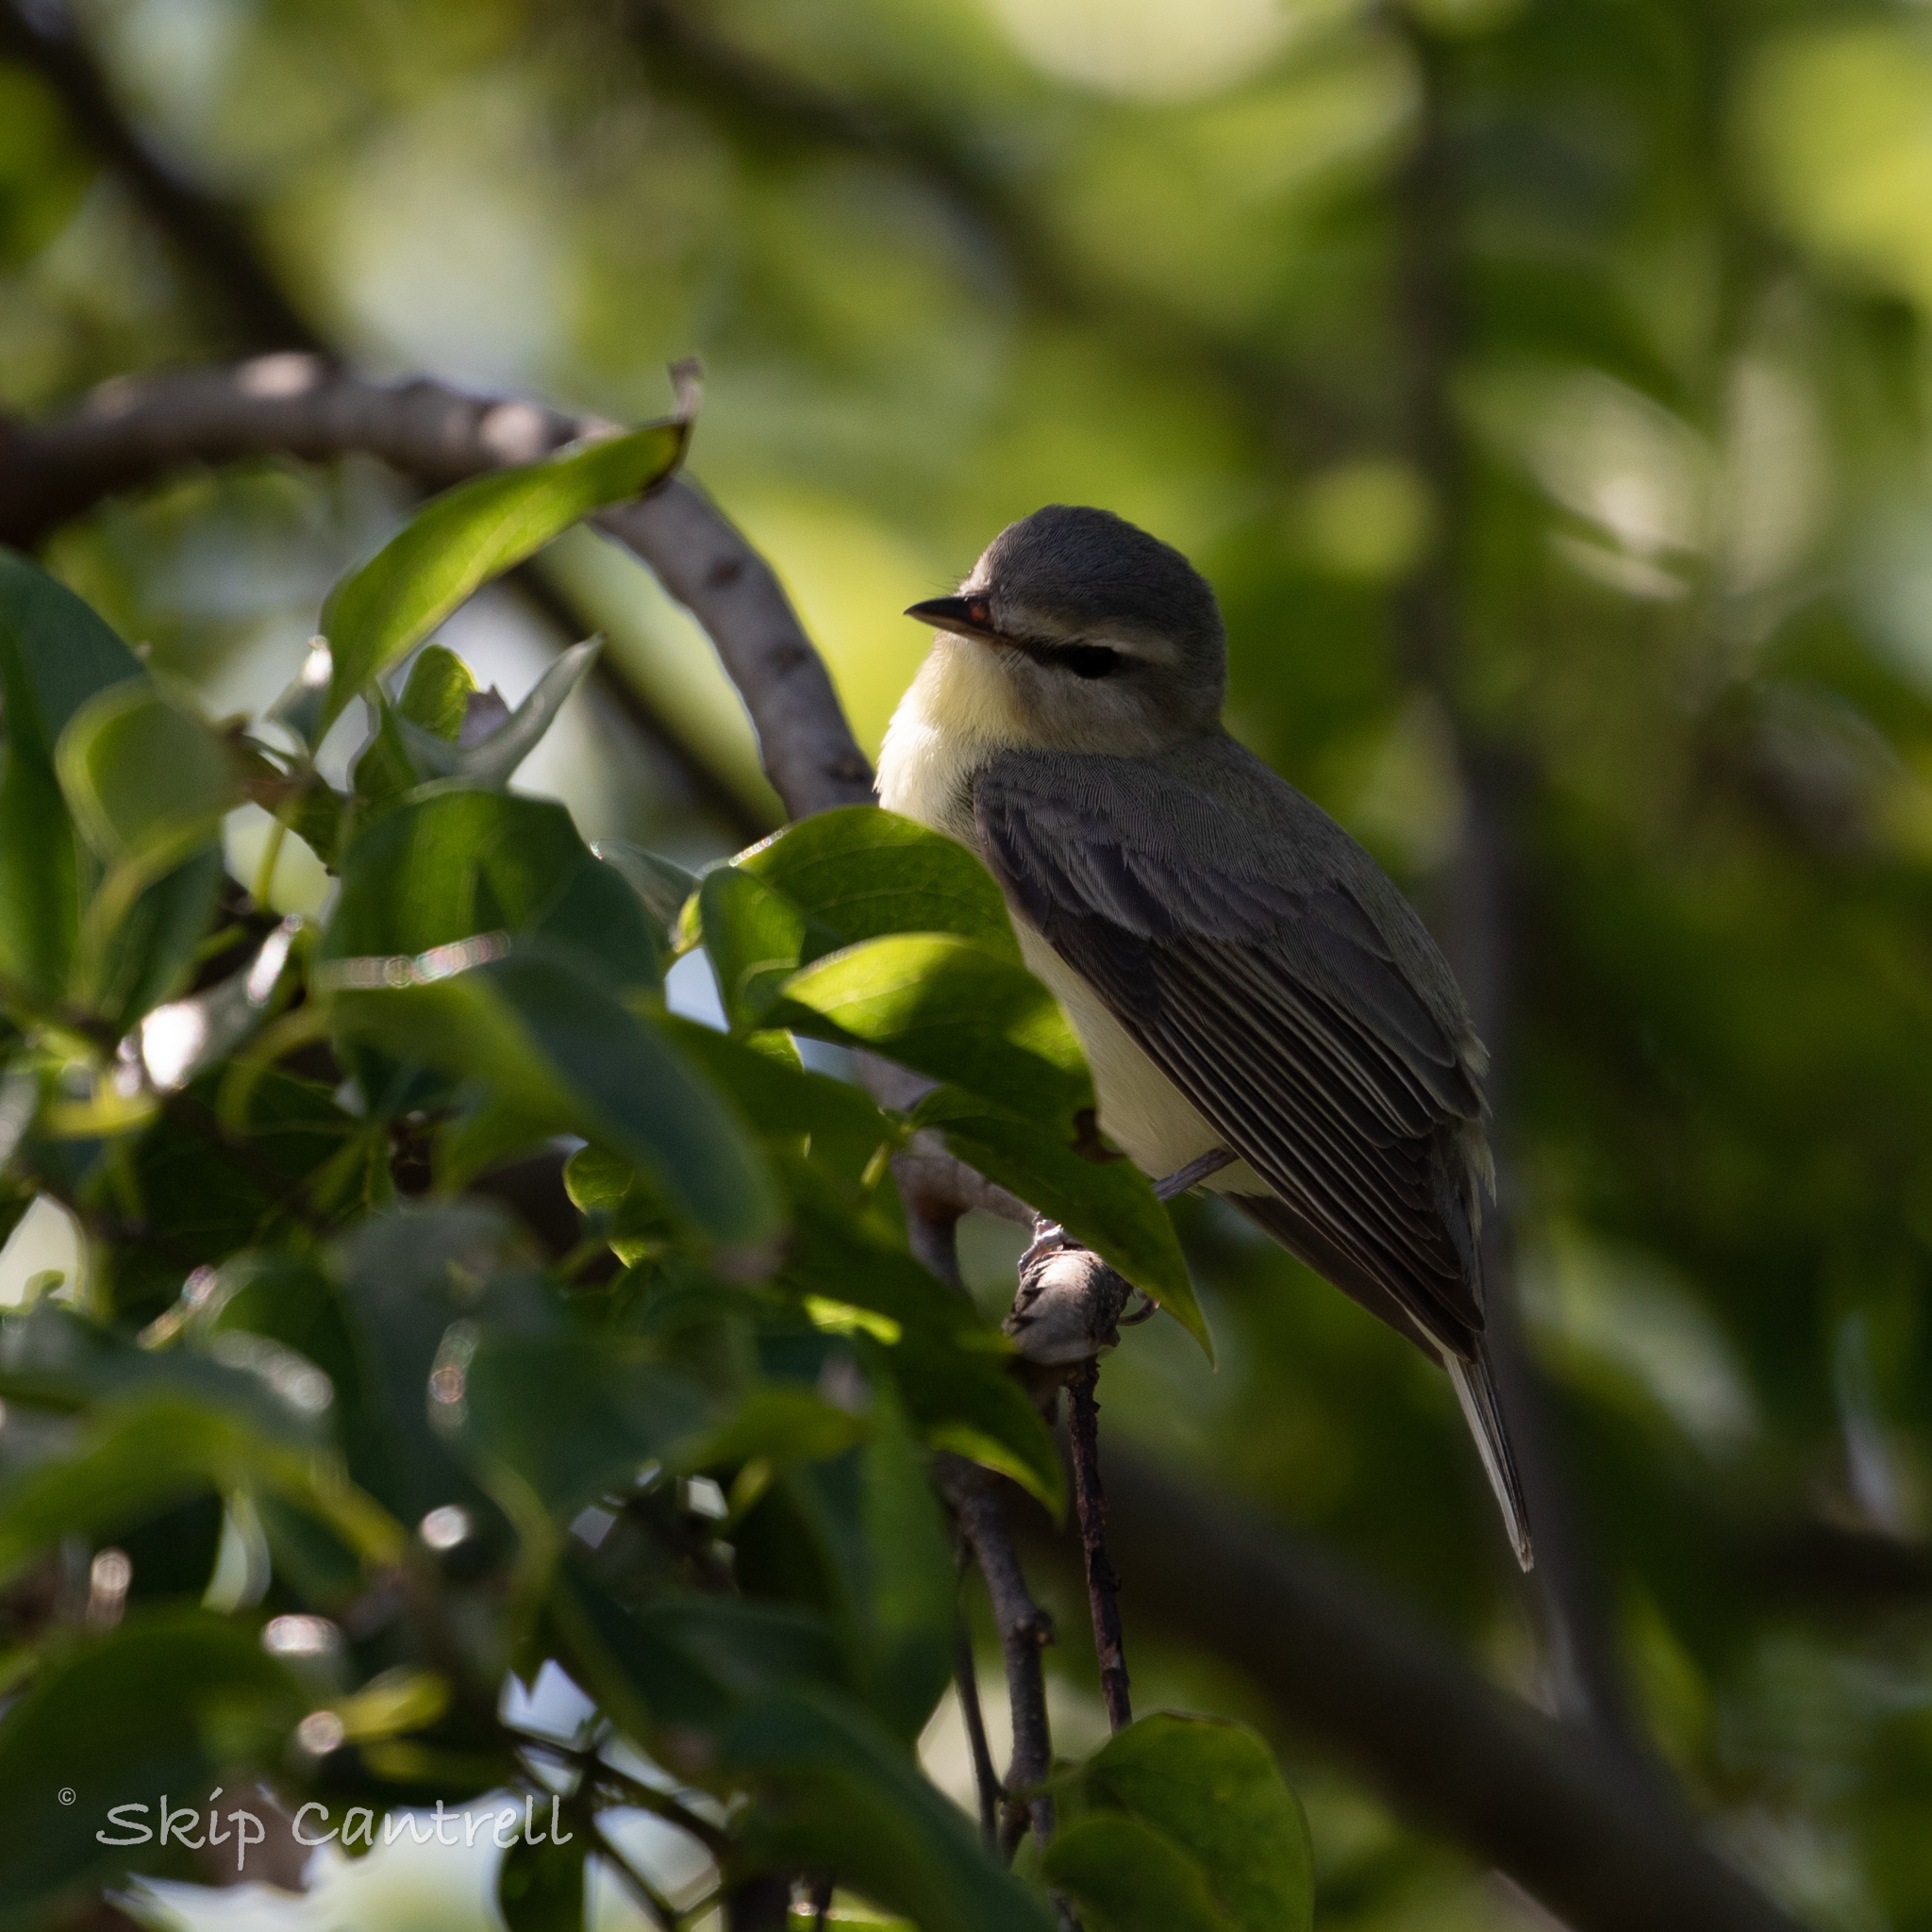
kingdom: Animalia
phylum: Chordata
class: Aves
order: Passeriformes
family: Vireonidae
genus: Vireo
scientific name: Vireo philadelphicus
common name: Philadelphia vireo
